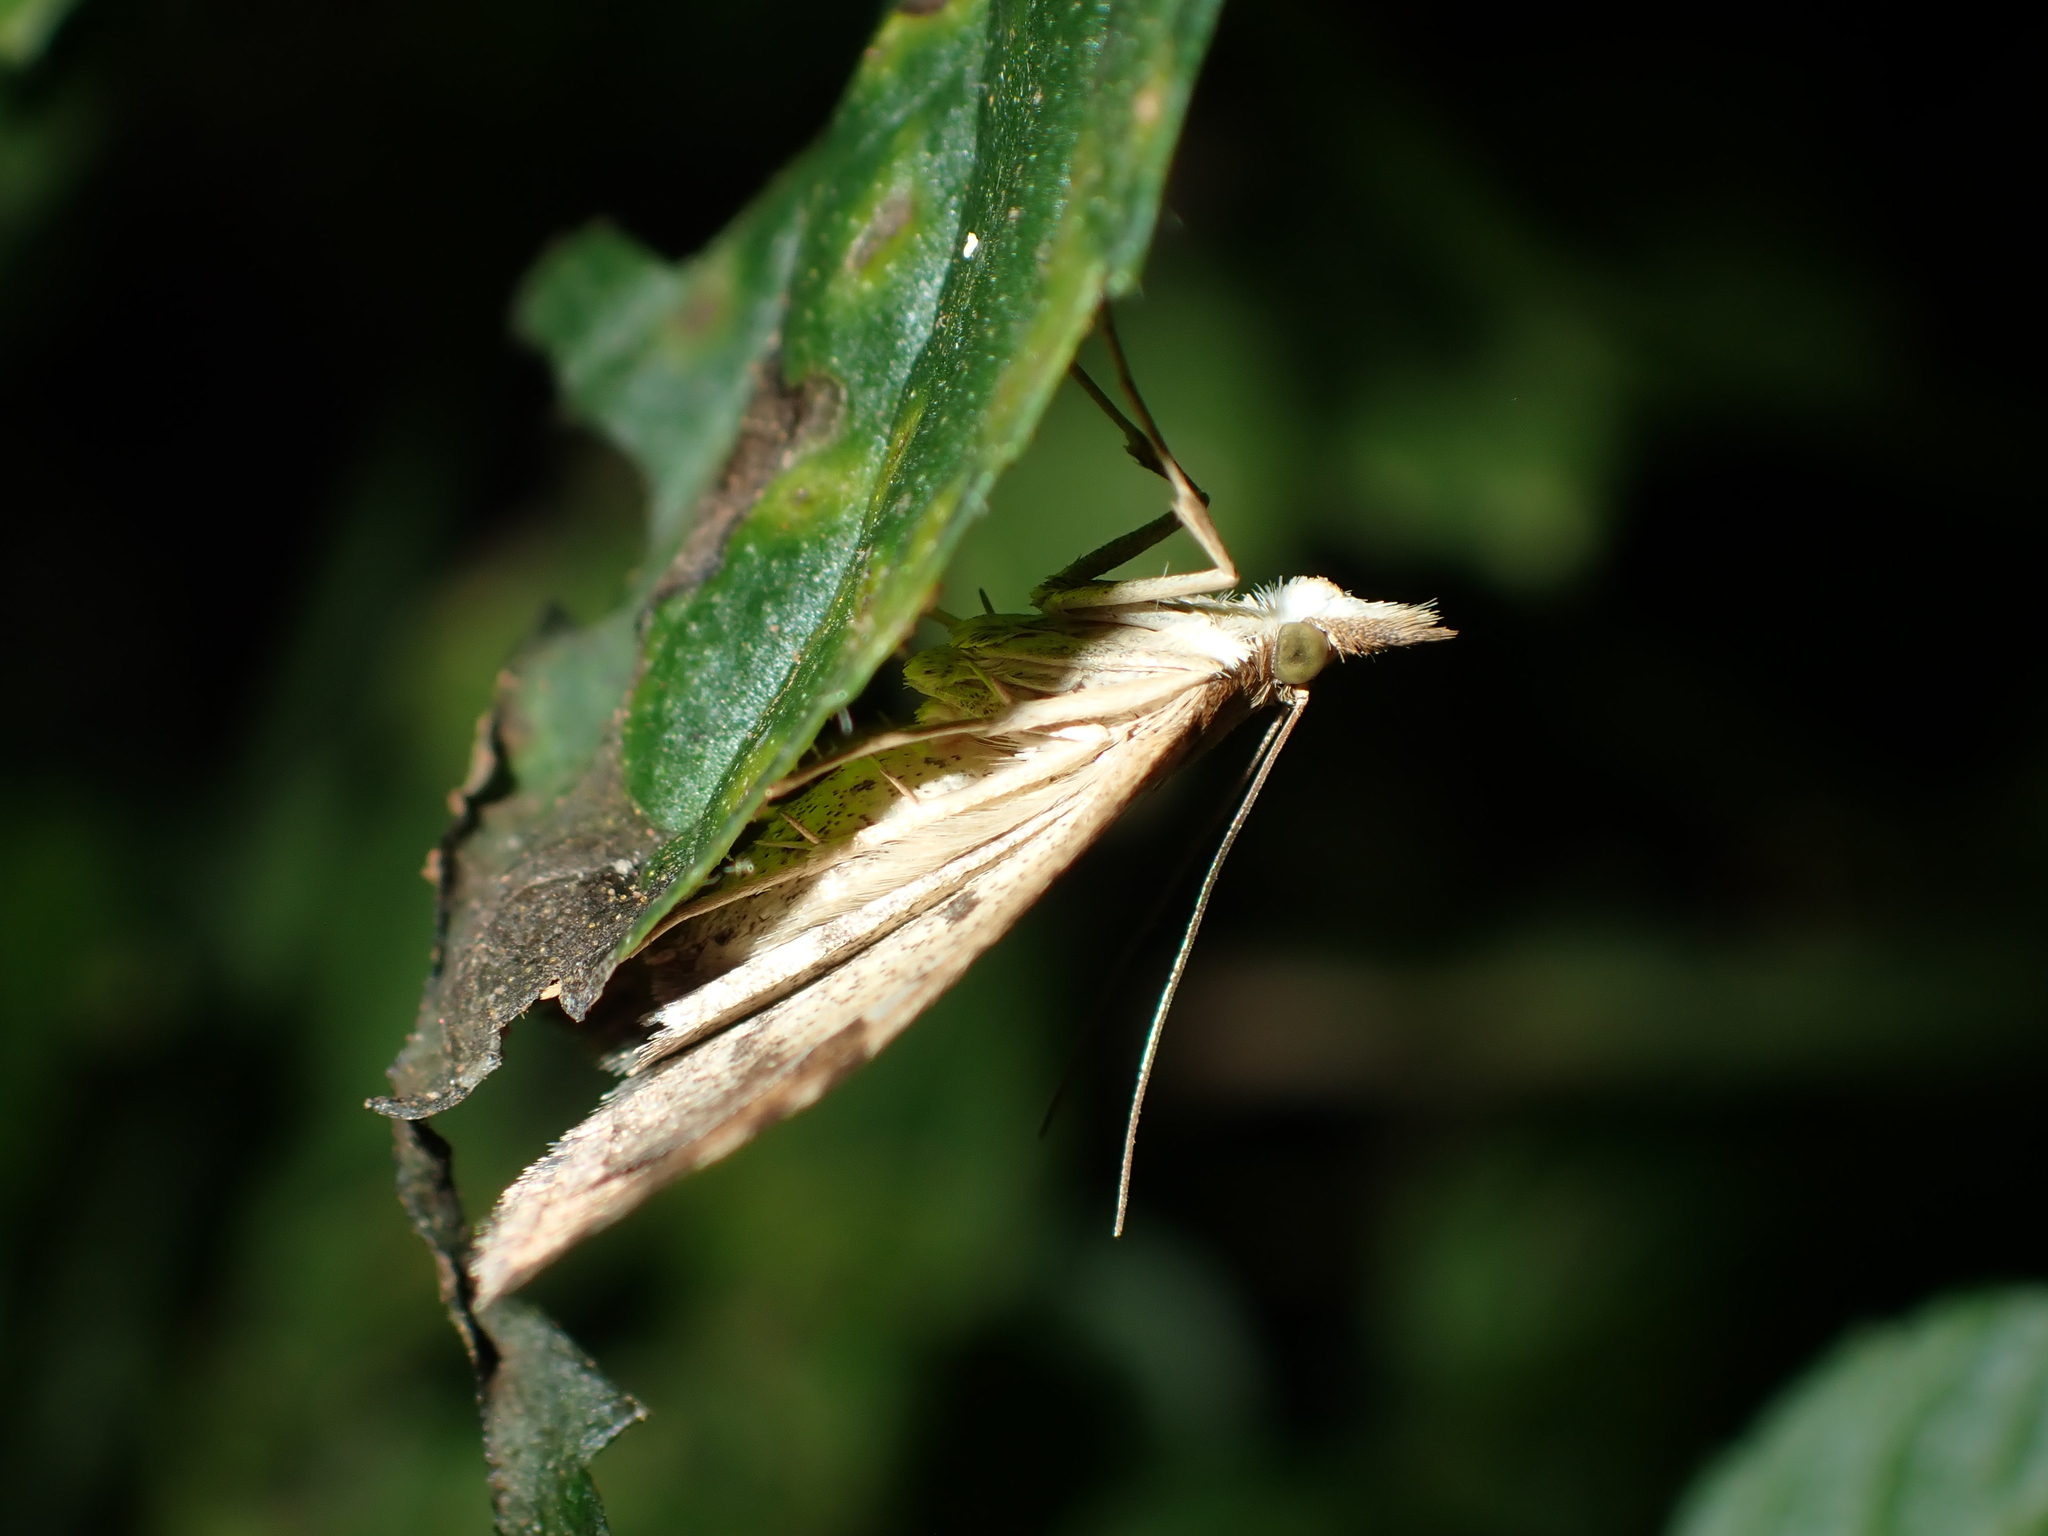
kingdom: Animalia
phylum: Arthropoda
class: Insecta
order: Lepidoptera
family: Crambidae
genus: Udea
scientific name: Udea Mnesictena marmarina
